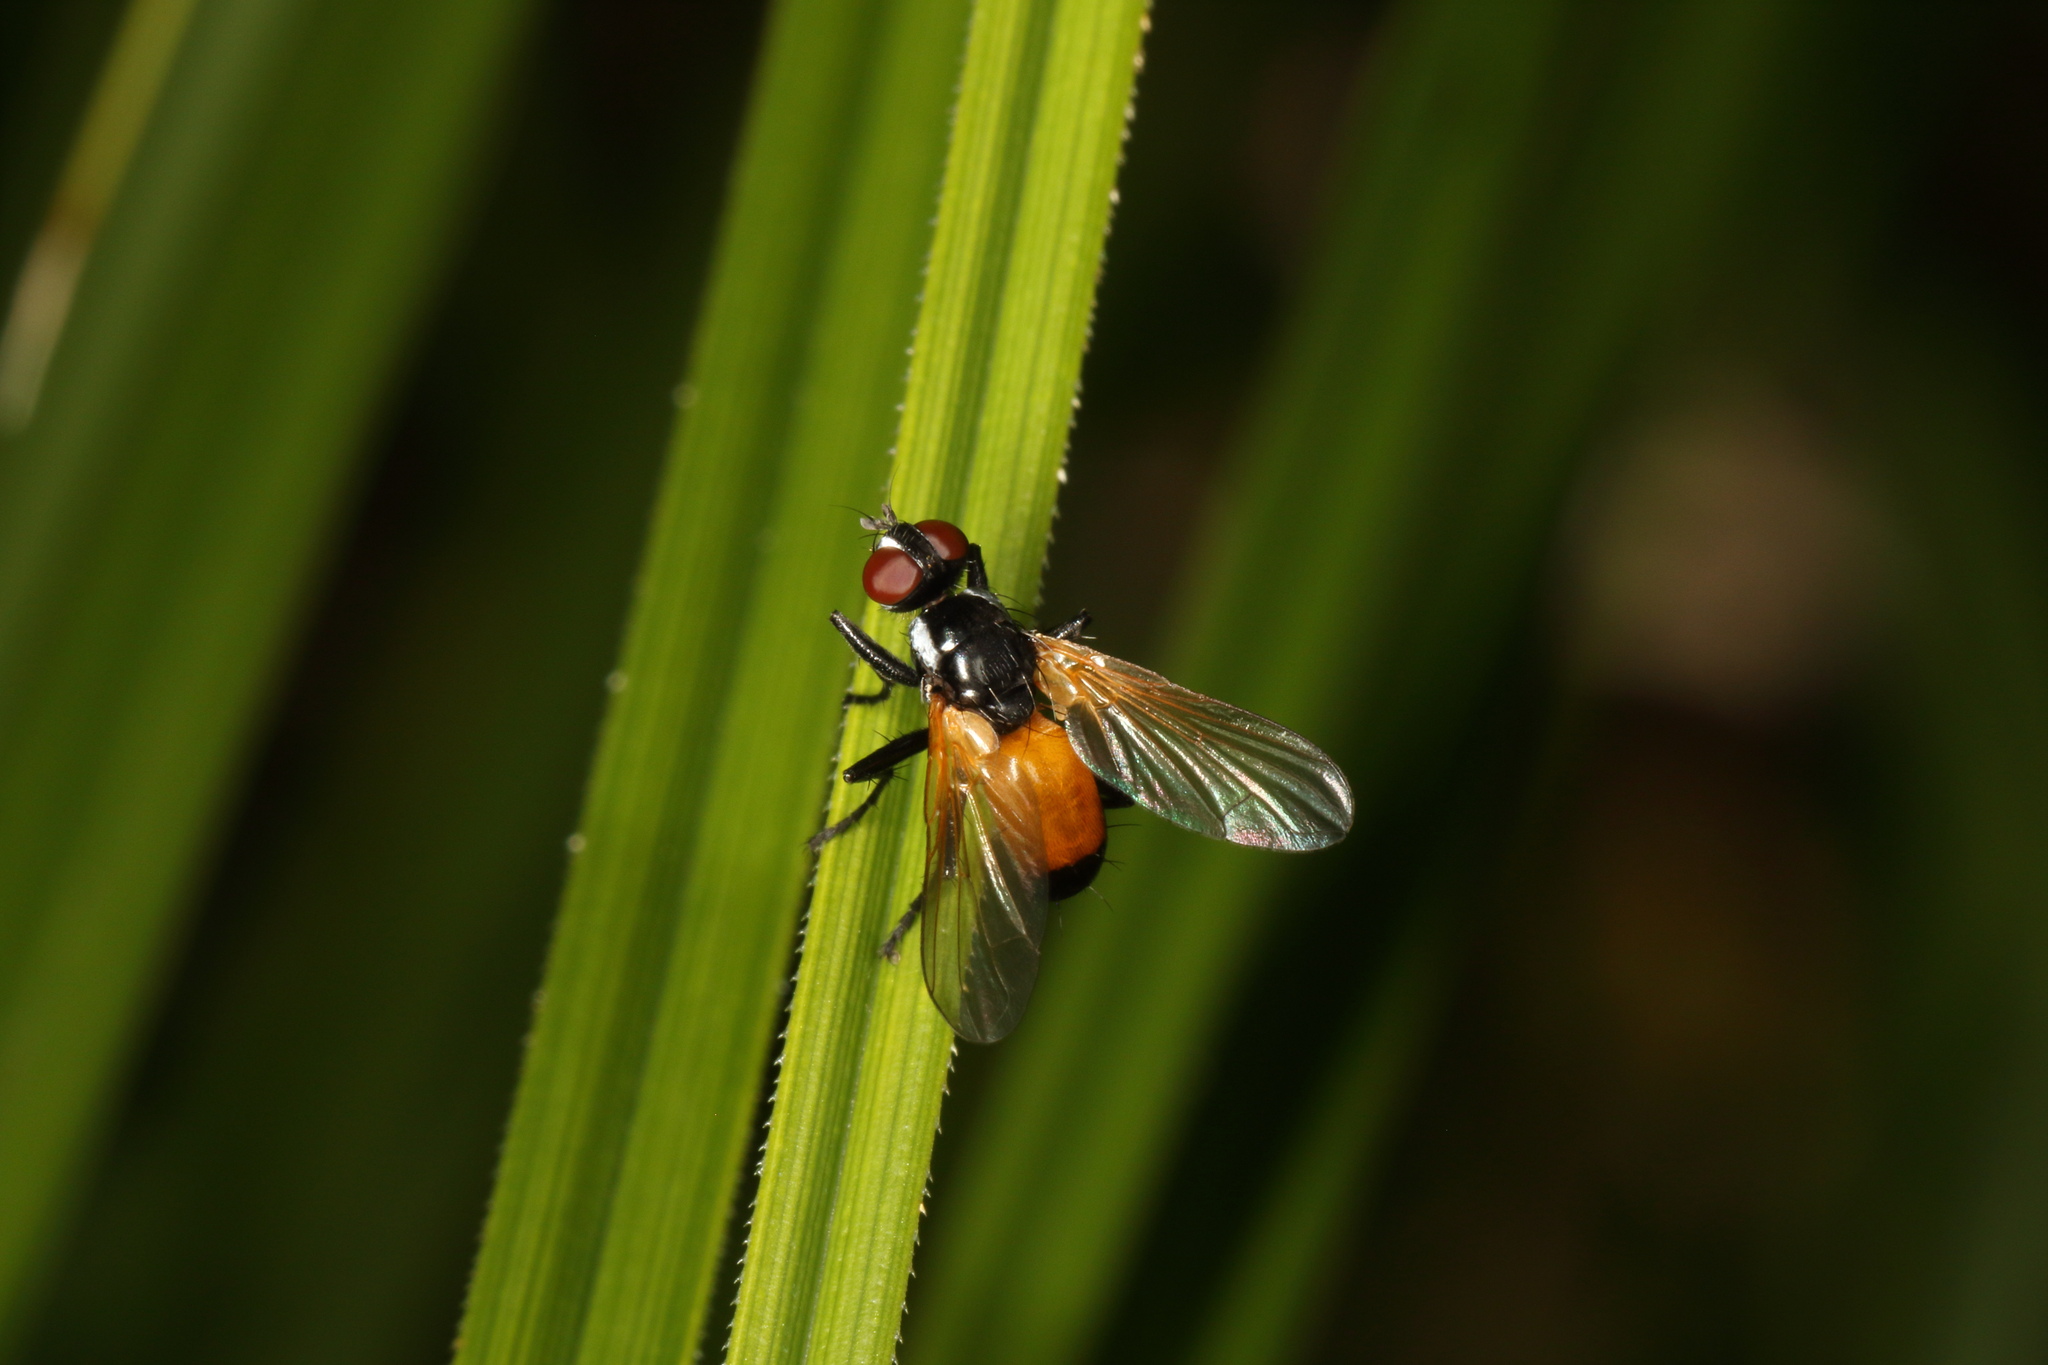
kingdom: Animalia
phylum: Arthropoda
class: Insecta
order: Diptera
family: Tachinidae
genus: Huttonobesseria
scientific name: Huttonobesseria verecunda
